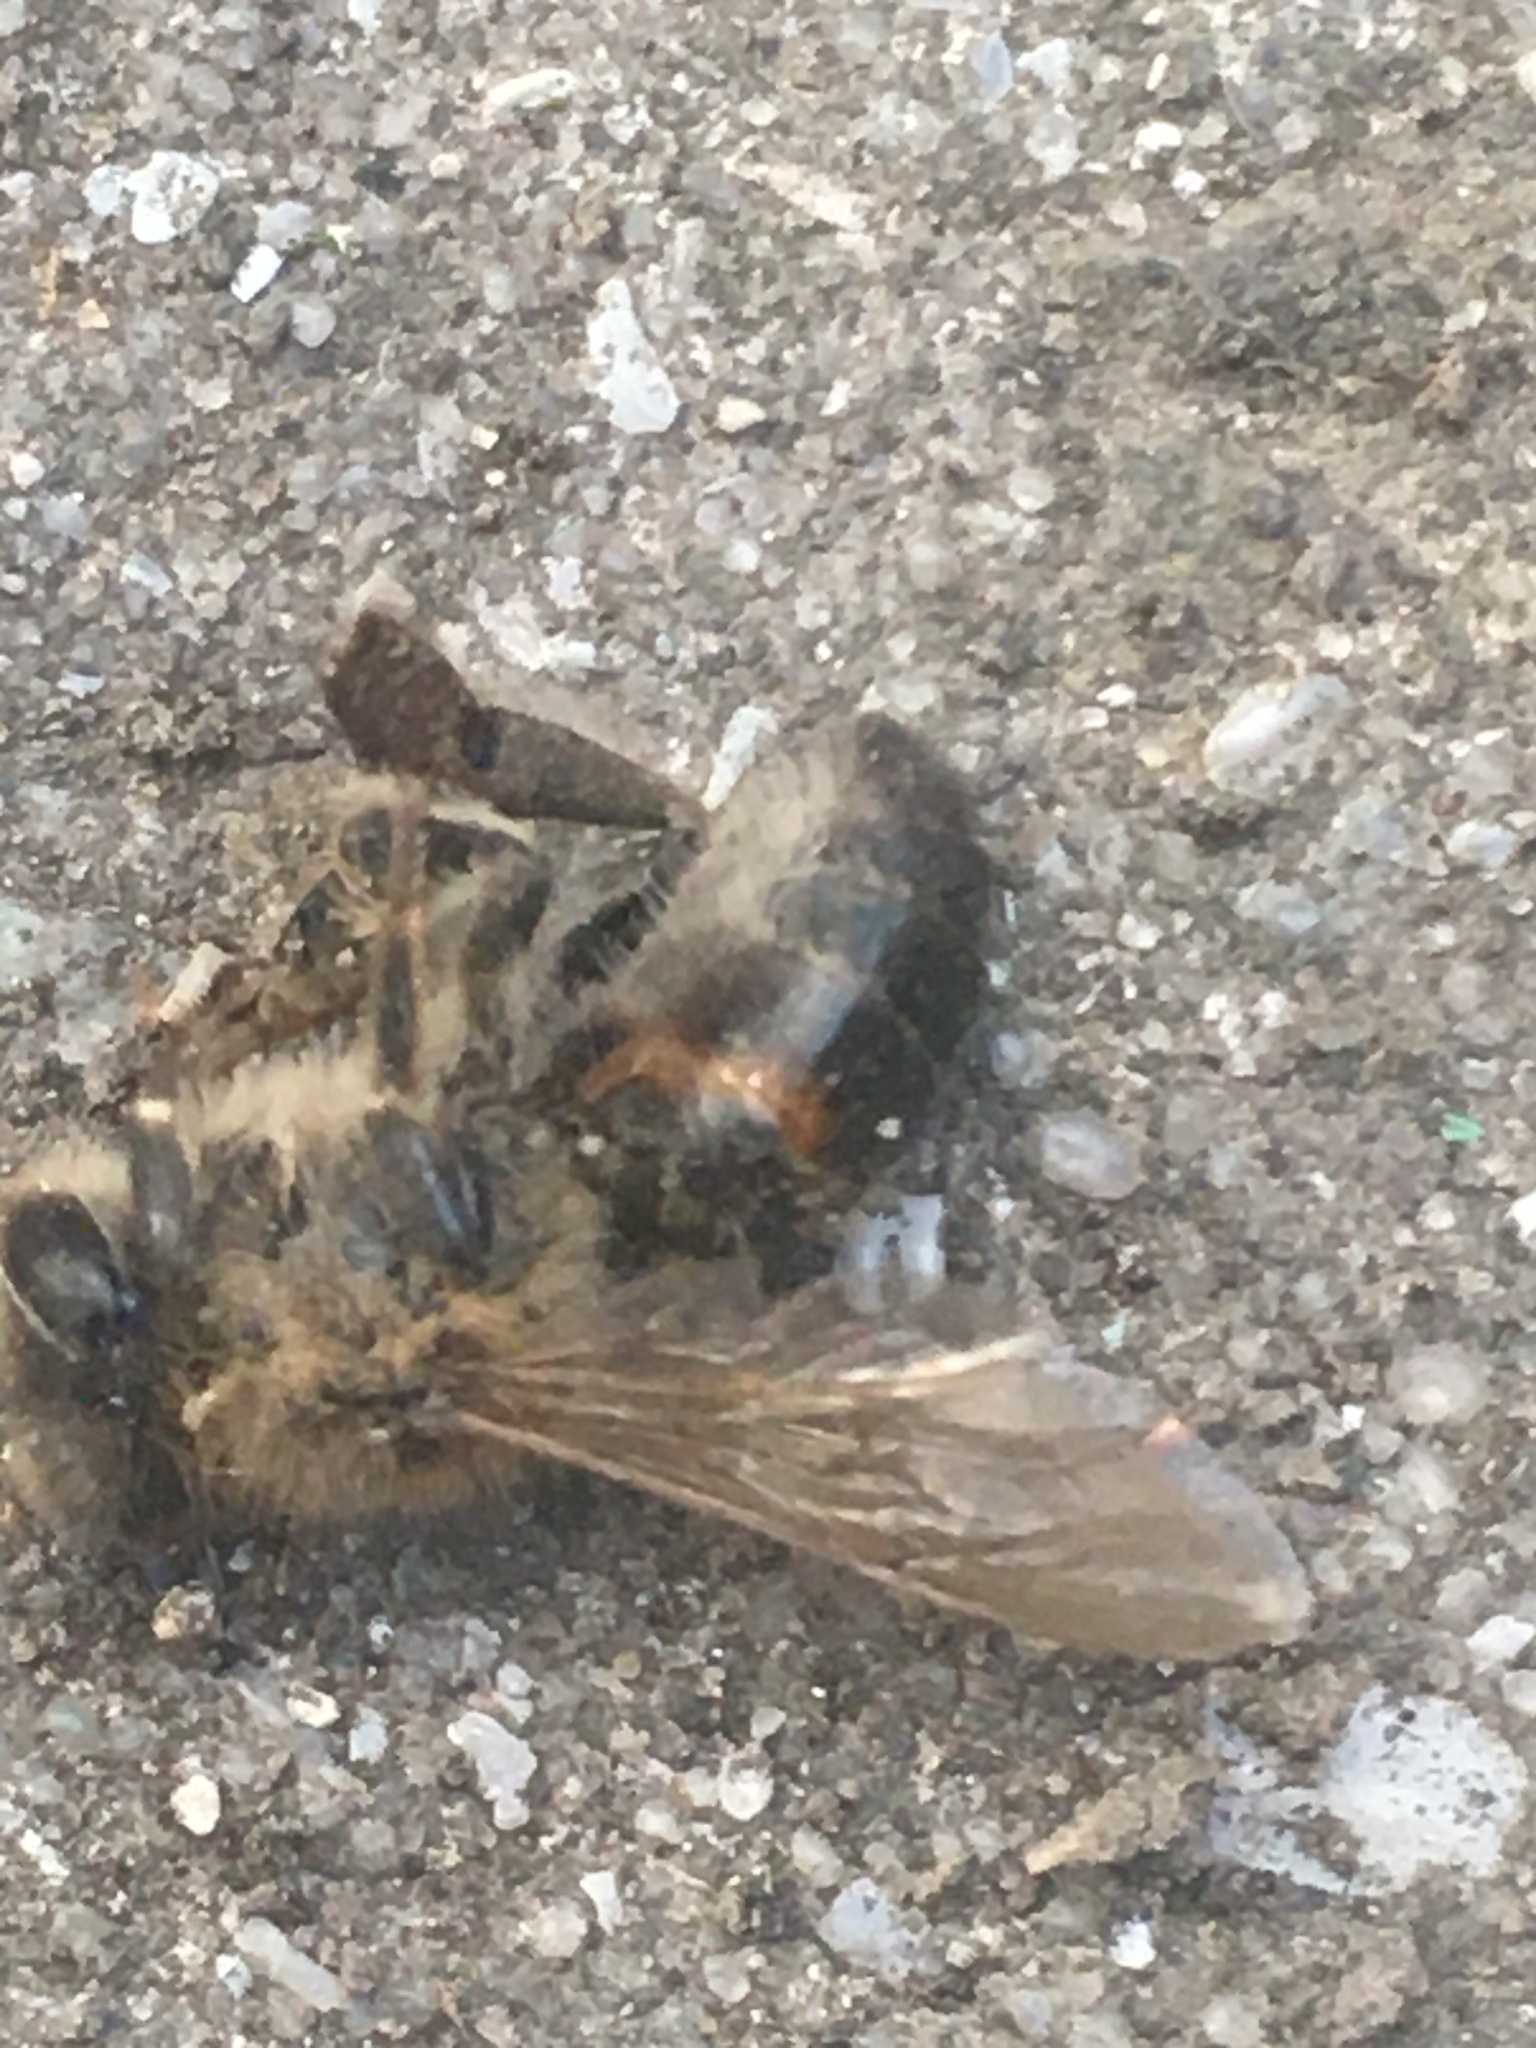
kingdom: Animalia
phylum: Arthropoda
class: Insecta
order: Hymenoptera
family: Apidae
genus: Apis
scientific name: Apis mellifera
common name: Honey bee
